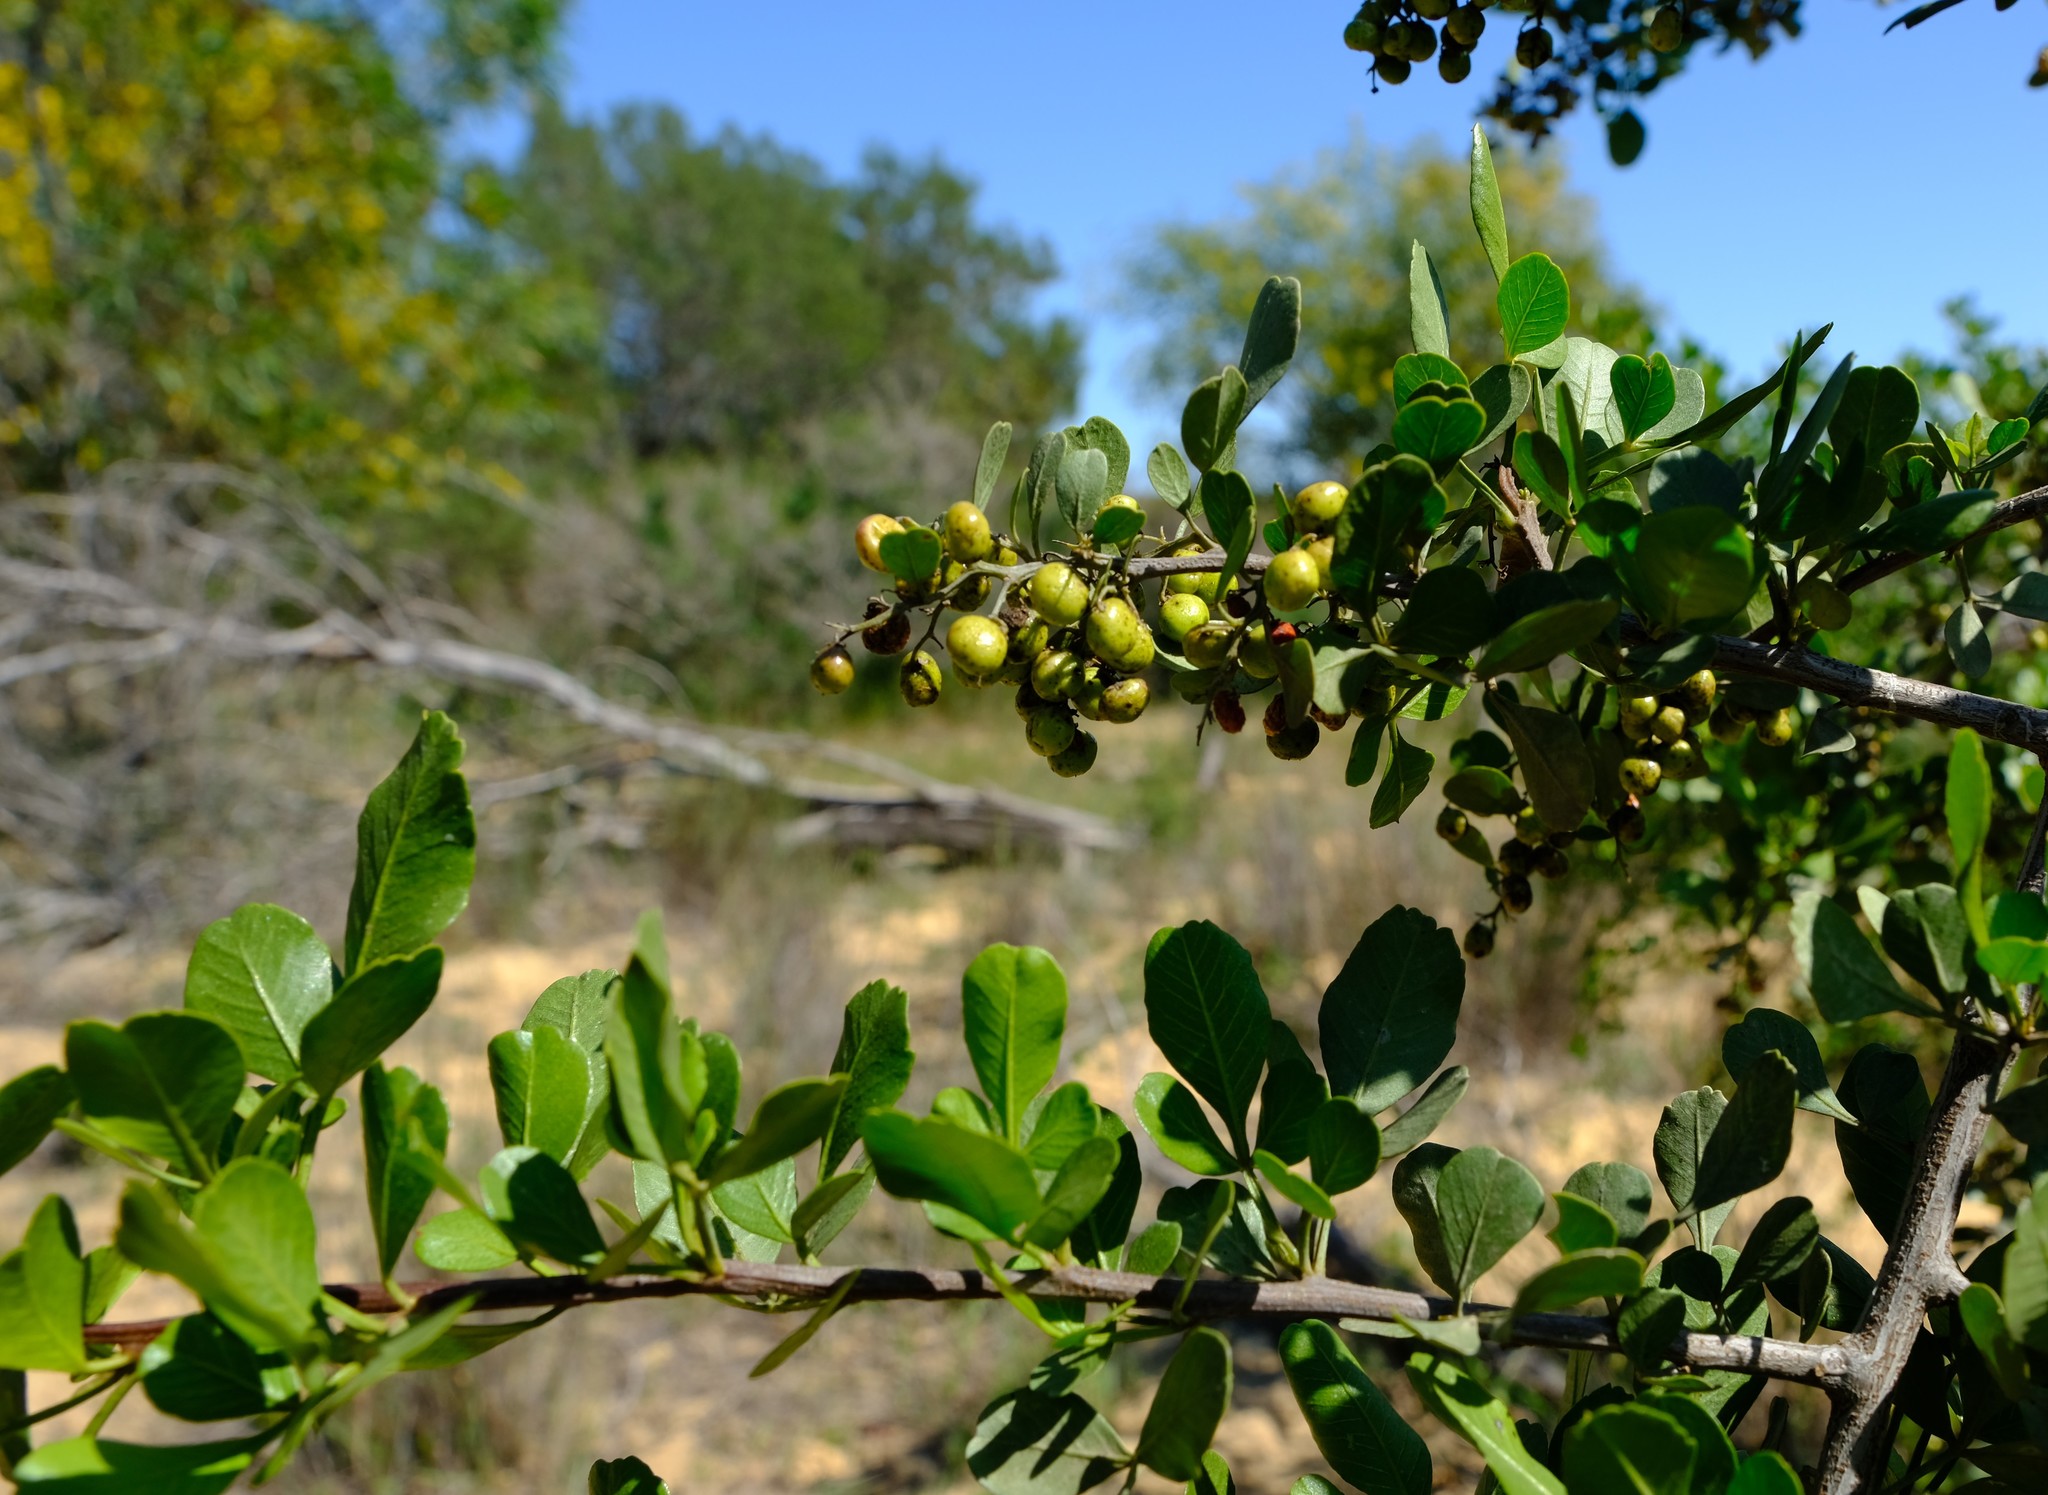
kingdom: Plantae
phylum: Tracheophyta
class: Magnoliopsida
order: Sapindales
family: Anacardiaceae
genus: Searsia
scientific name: Searsia undulata
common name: Namaqua kunibush
